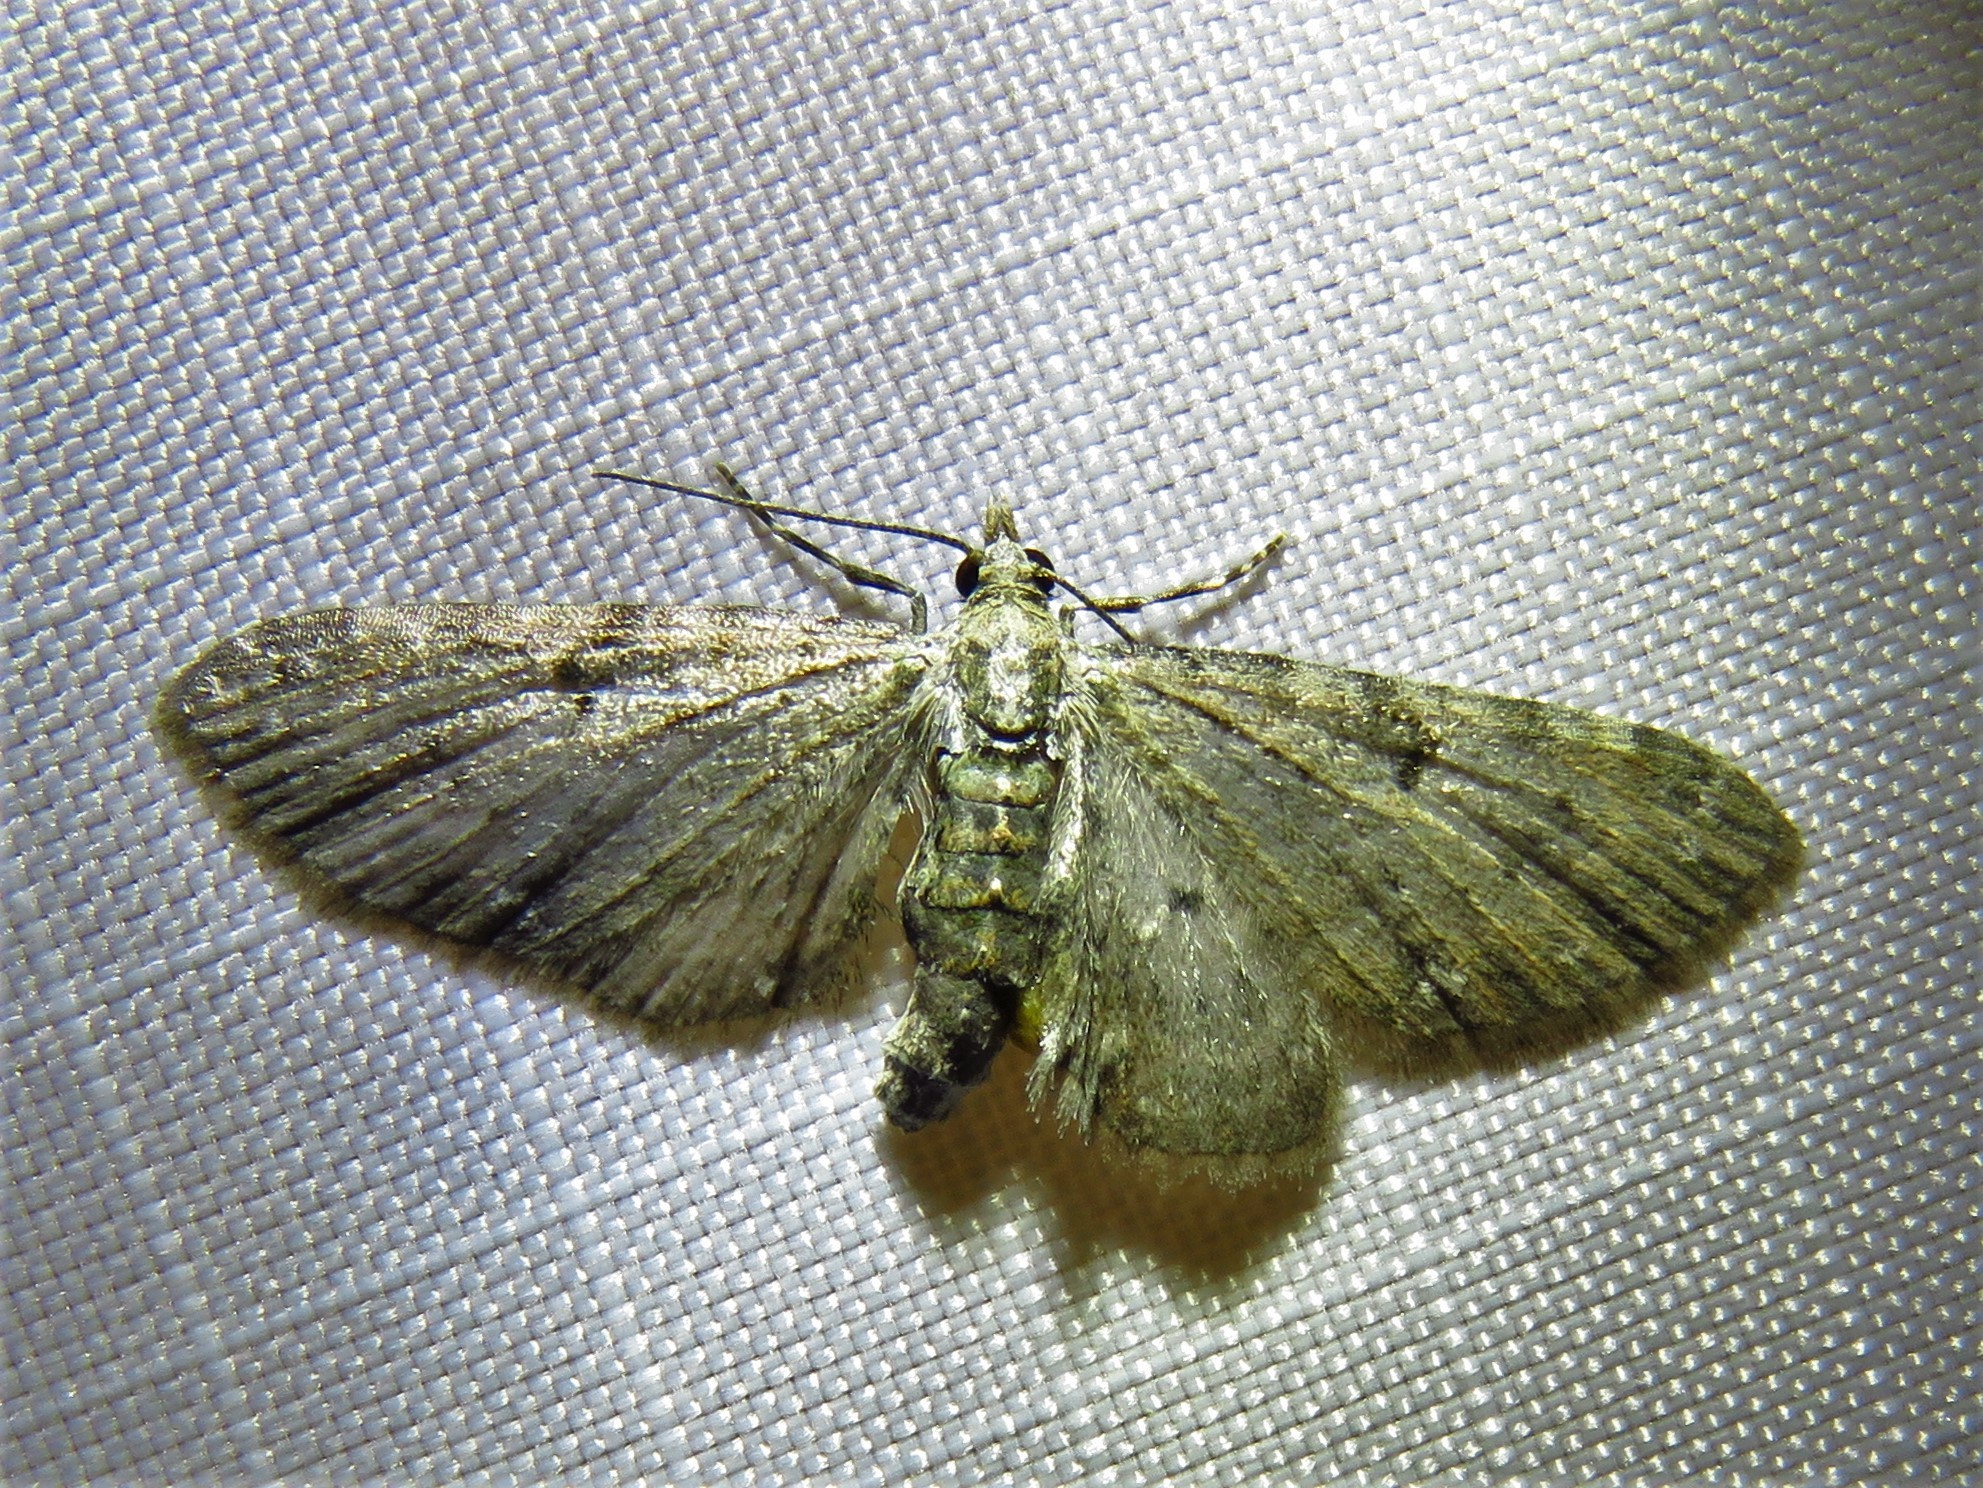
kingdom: Animalia
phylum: Arthropoda
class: Insecta
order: Lepidoptera
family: Geometridae
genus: Eupithecia
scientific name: Eupithecia miserulata
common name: Common eupithecia
